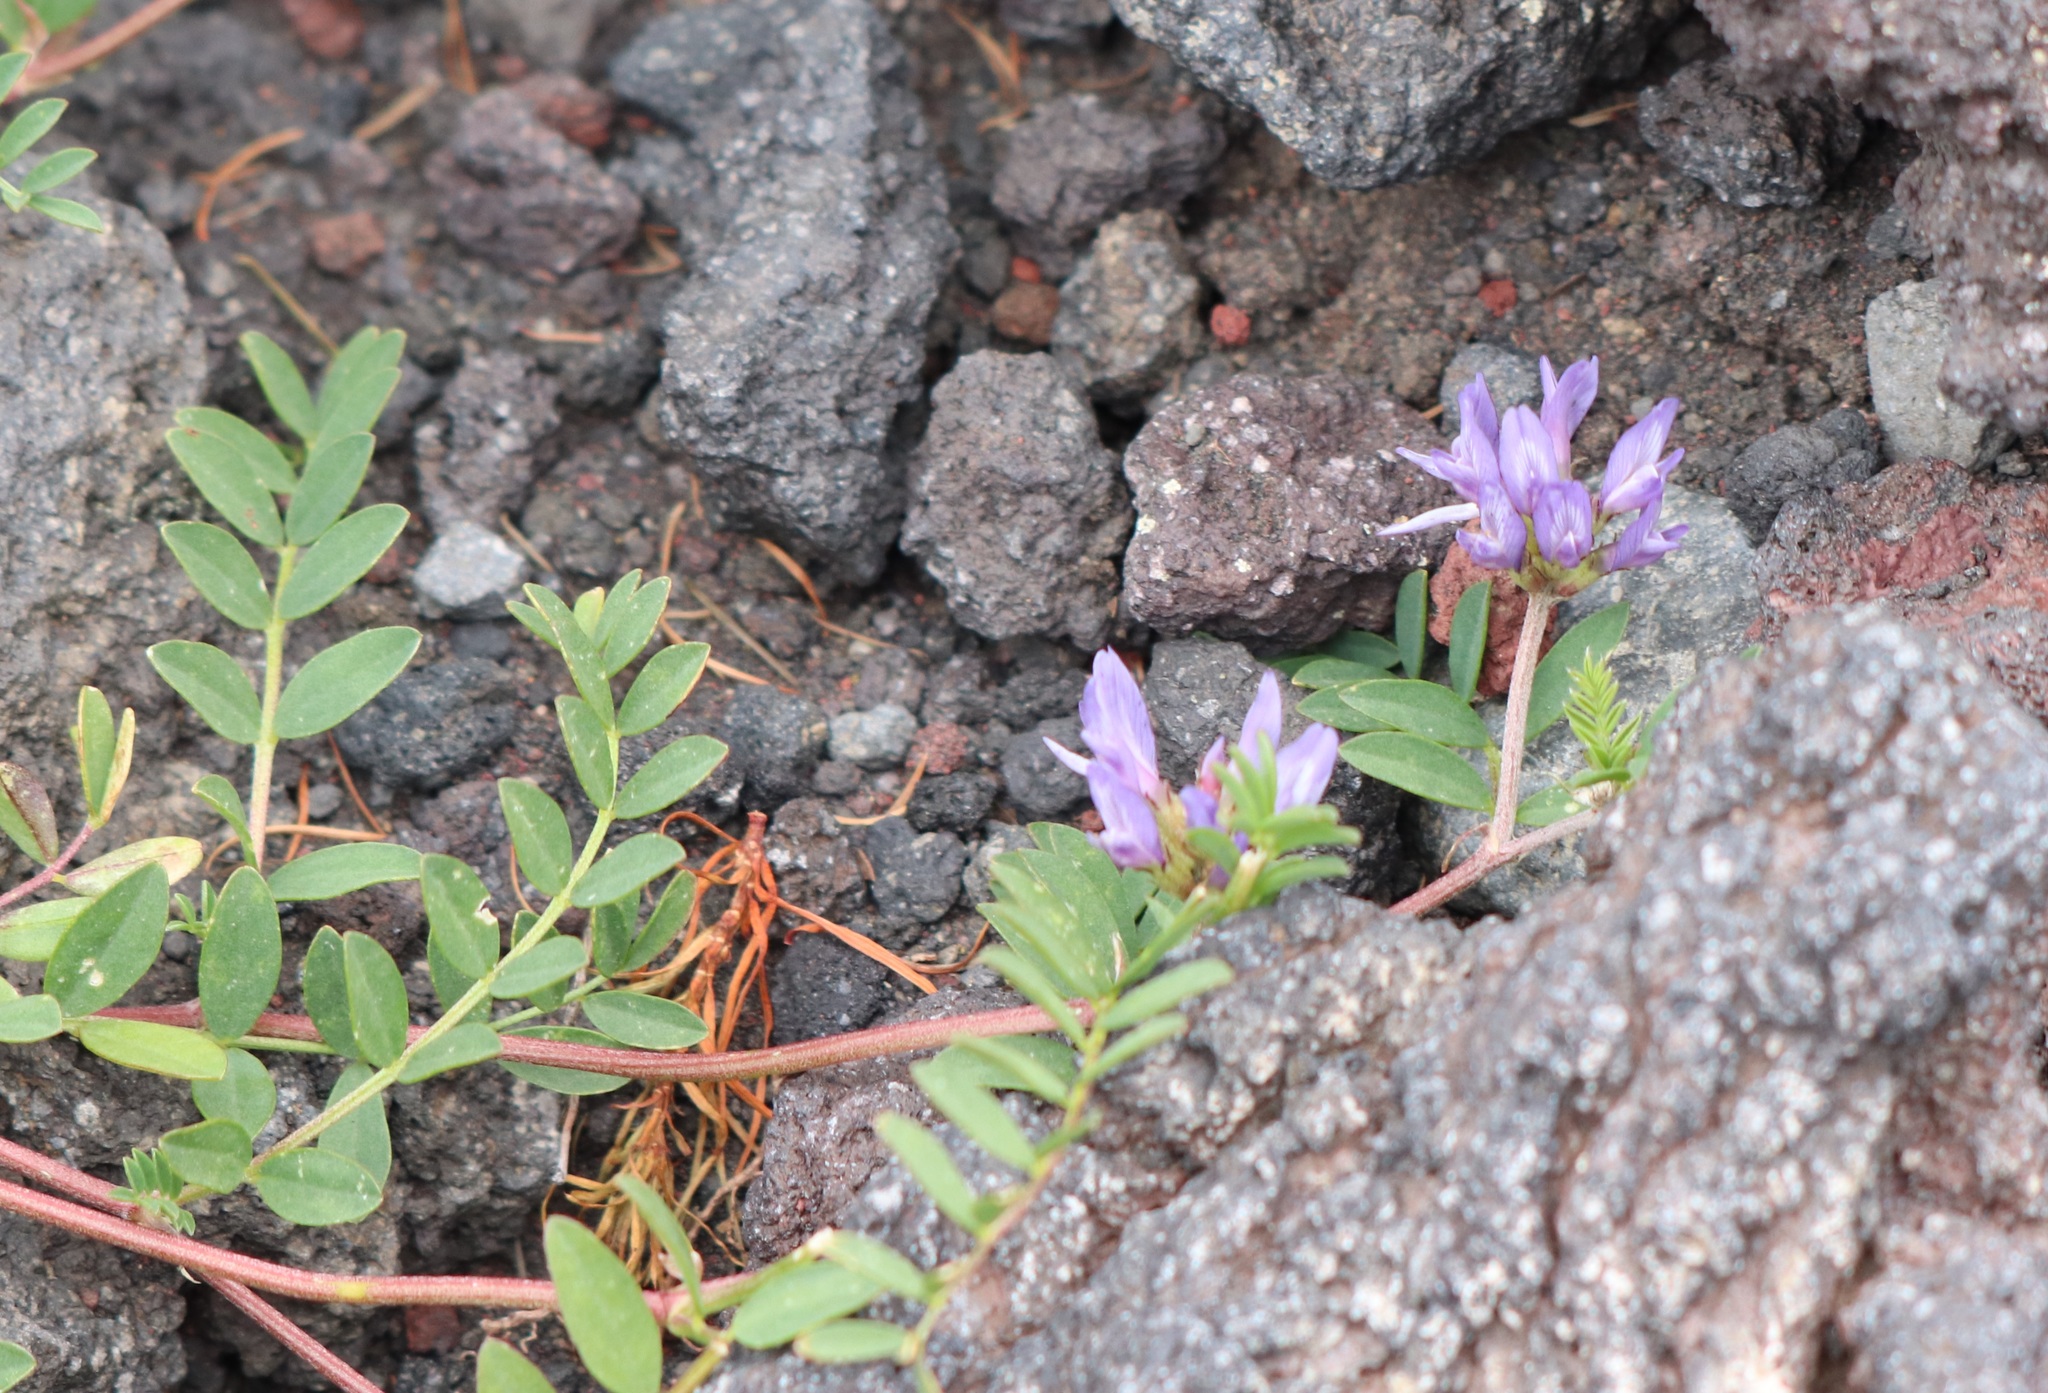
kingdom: Plantae
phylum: Tracheophyta
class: Magnoliopsida
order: Fabales
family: Fabaceae
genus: Astragalus
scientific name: Astragalus laxmannii
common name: Laxmann's milk-vetch
